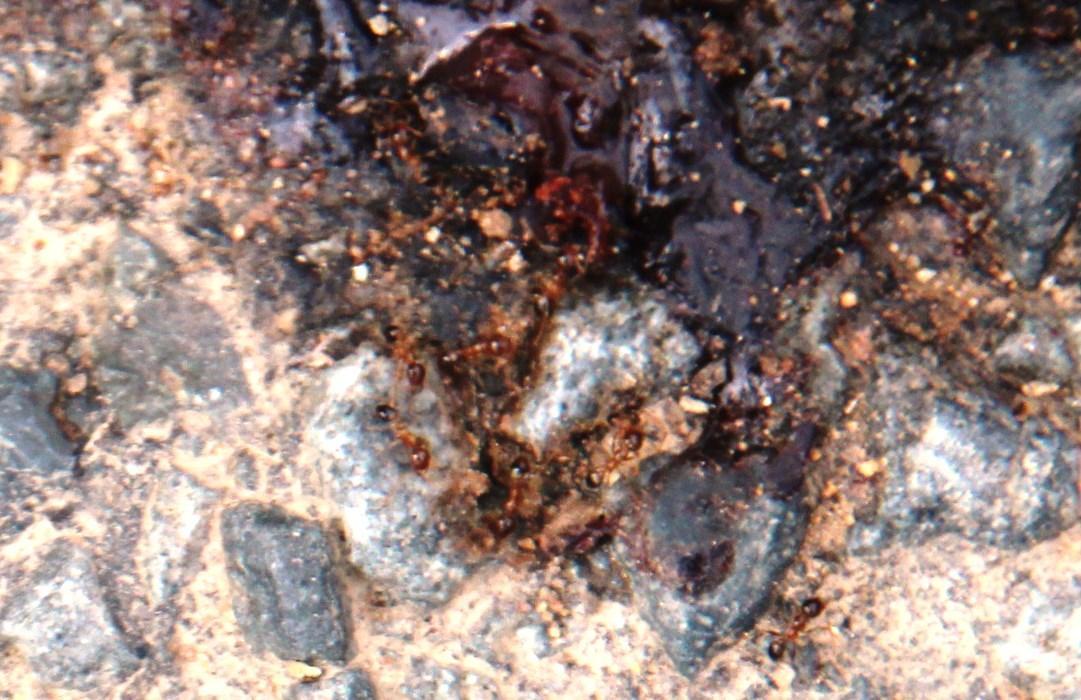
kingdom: Animalia
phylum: Arthropoda
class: Insecta
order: Hymenoptera
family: Formicidae
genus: Pheidole
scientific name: Pheidole megacephala
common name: Bigheaded ant
